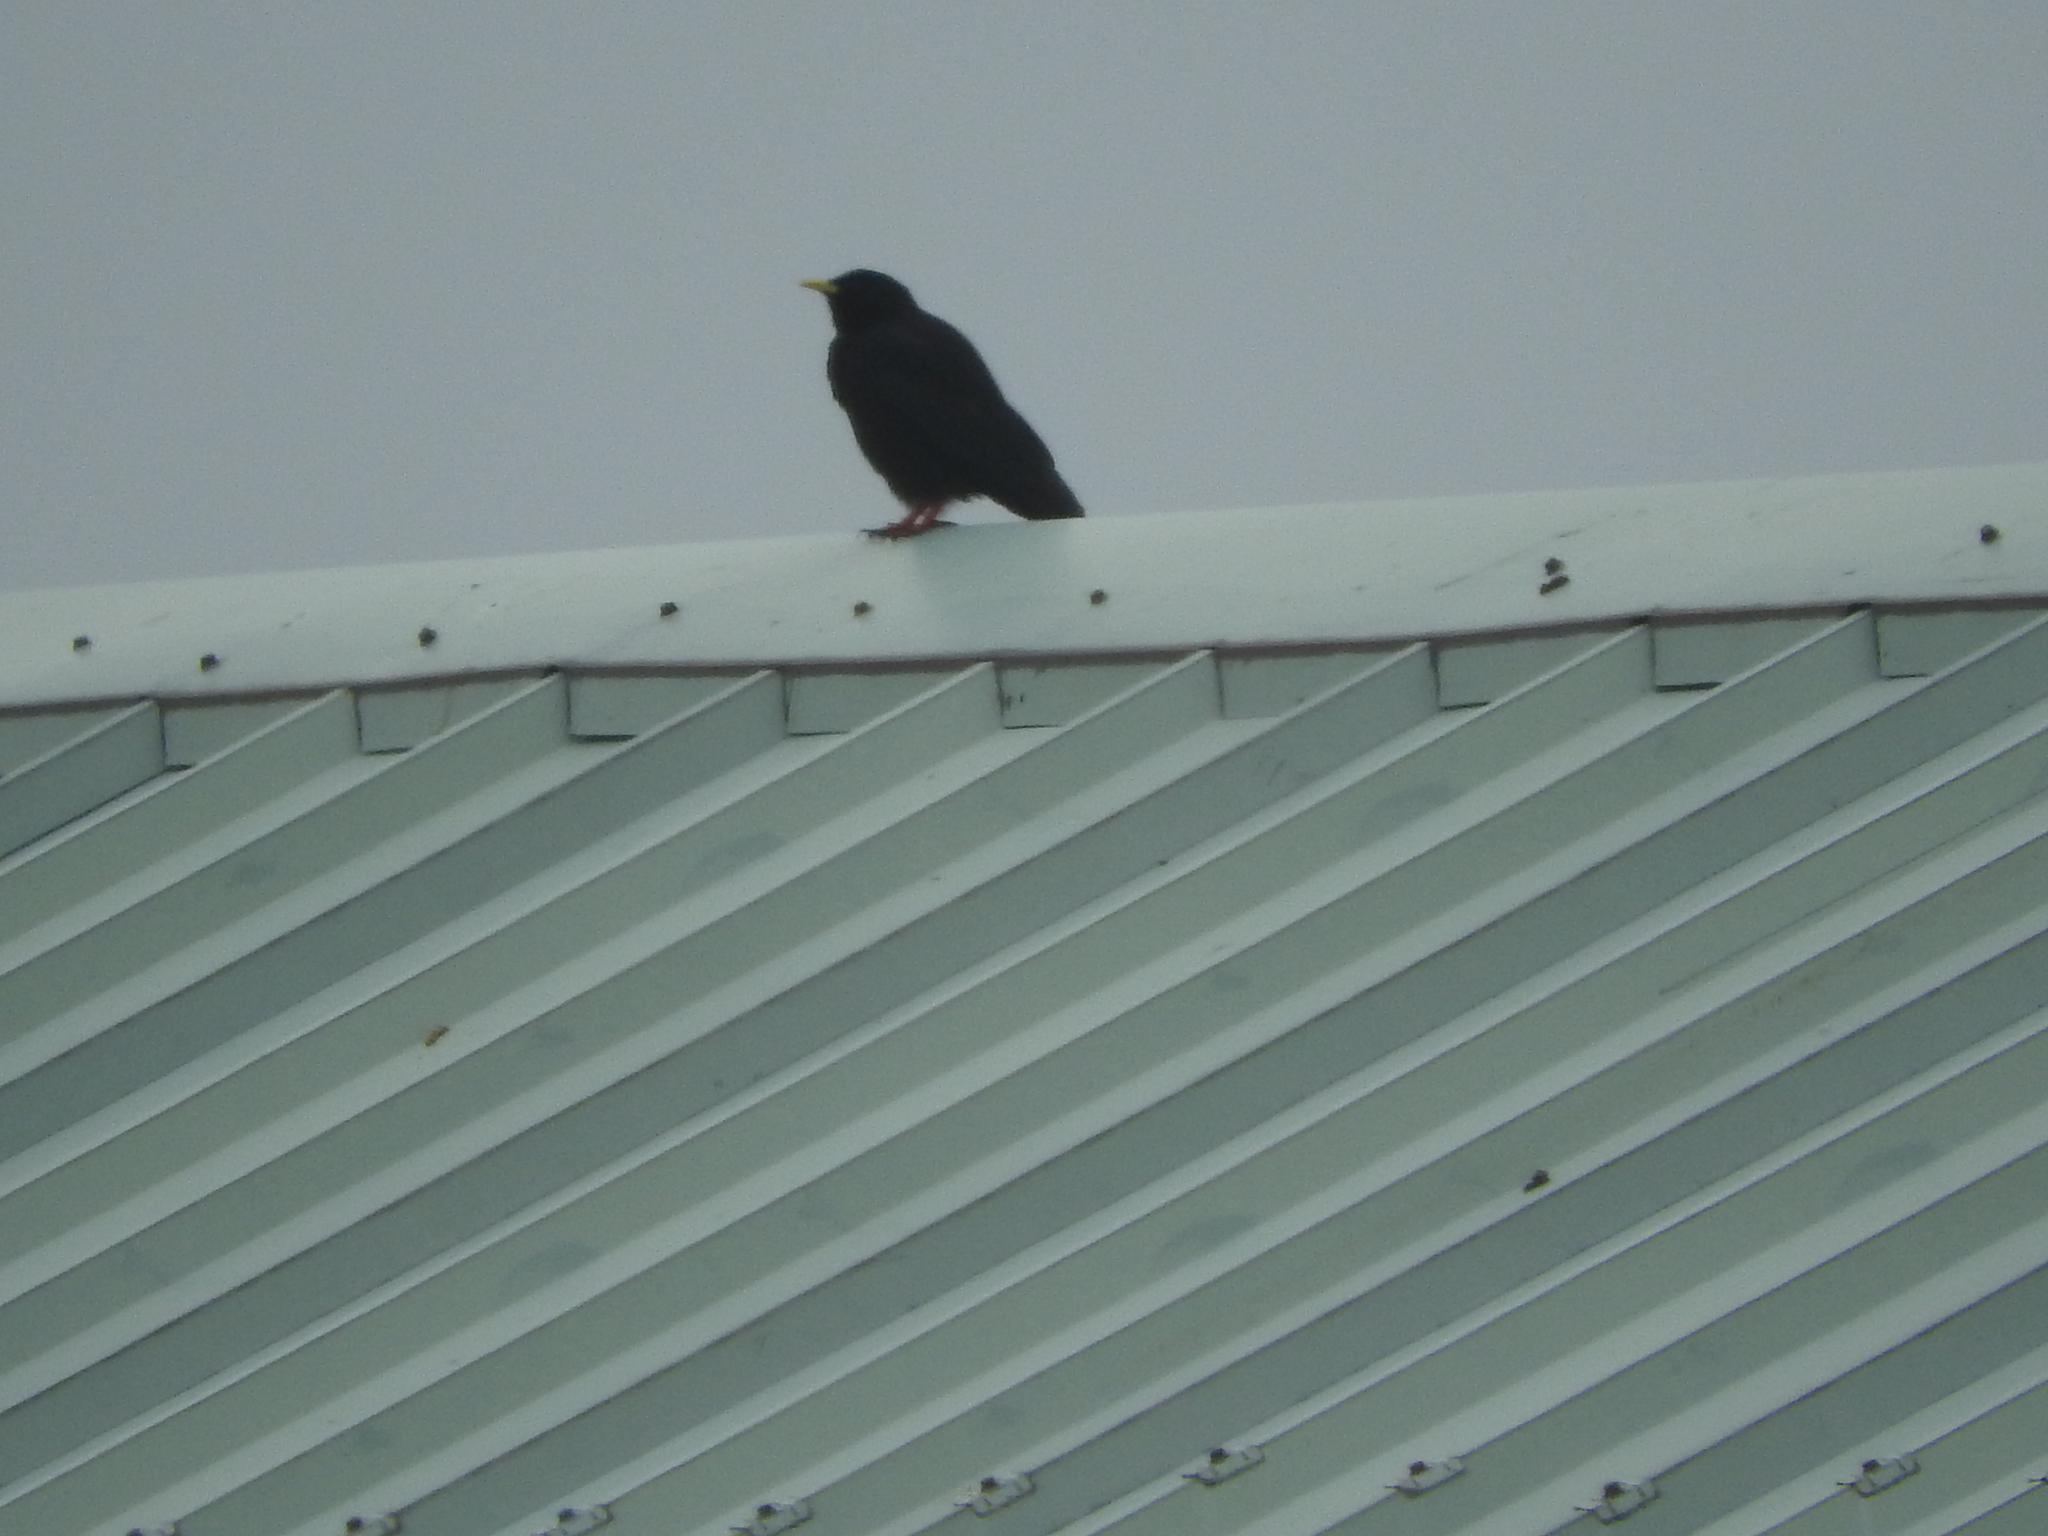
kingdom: Animalia
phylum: Chordata
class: Aves
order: Passeriformes
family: Corvidae
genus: Pyrrhocorax
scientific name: Pyrrhocorax graculus
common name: Alpine chough
